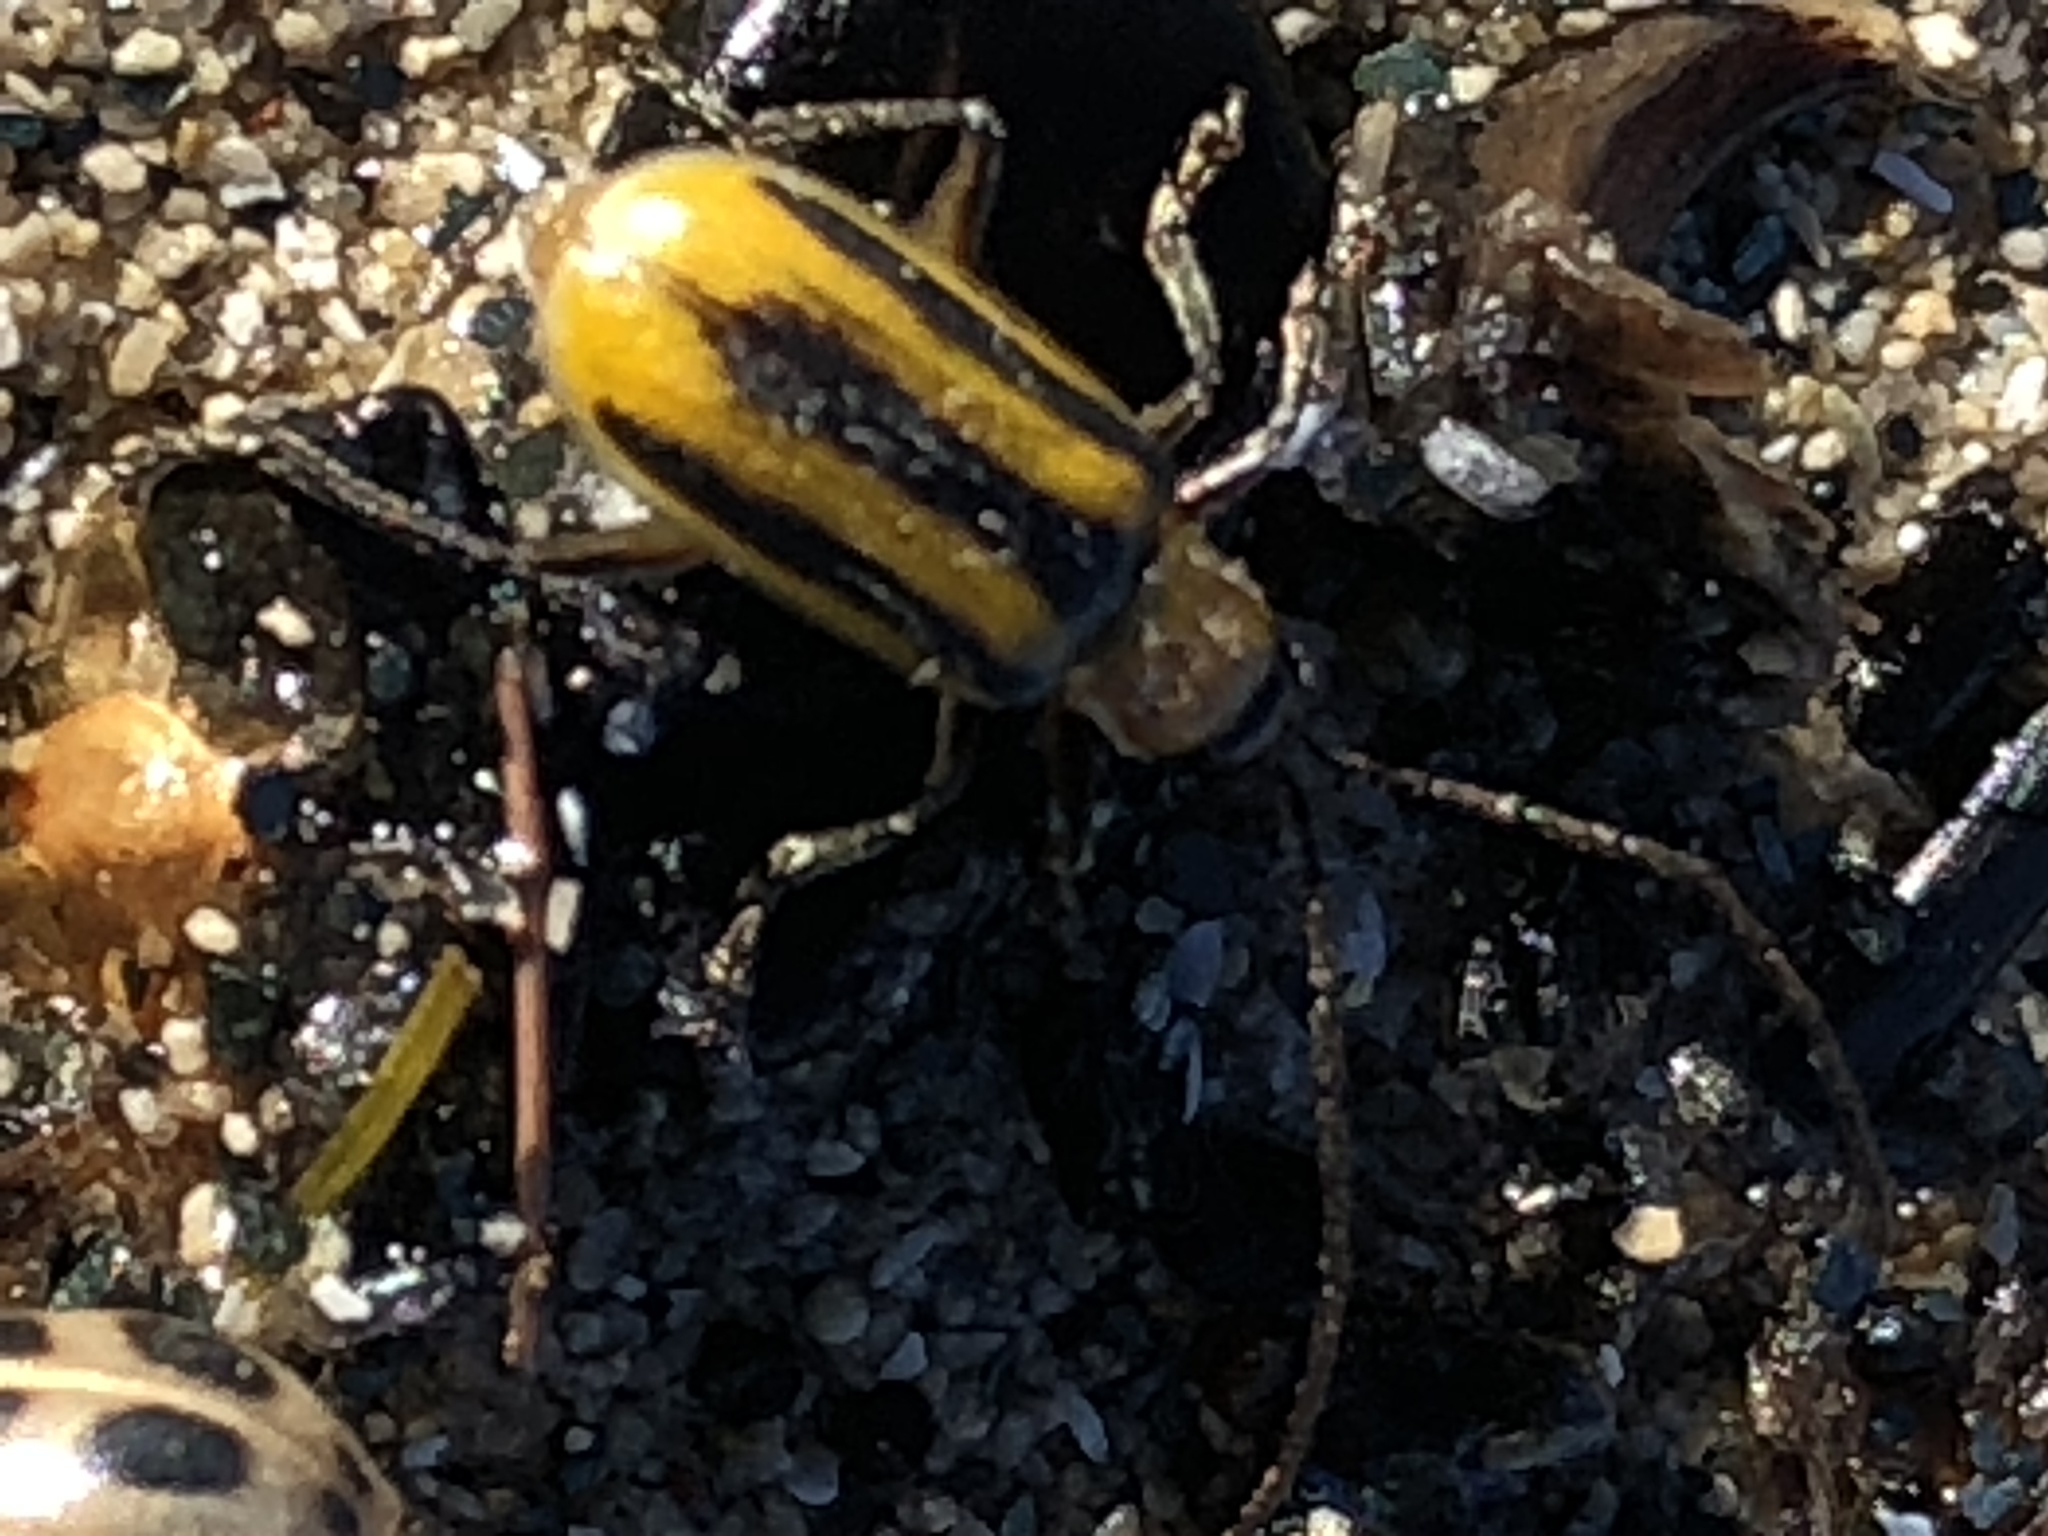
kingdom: Animalia
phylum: Arthropoda
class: Insecta
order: Coleoptera
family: Chrysomelidae
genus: Acalymma
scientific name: Acalymma vittatum
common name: Striped cucumber beetle
